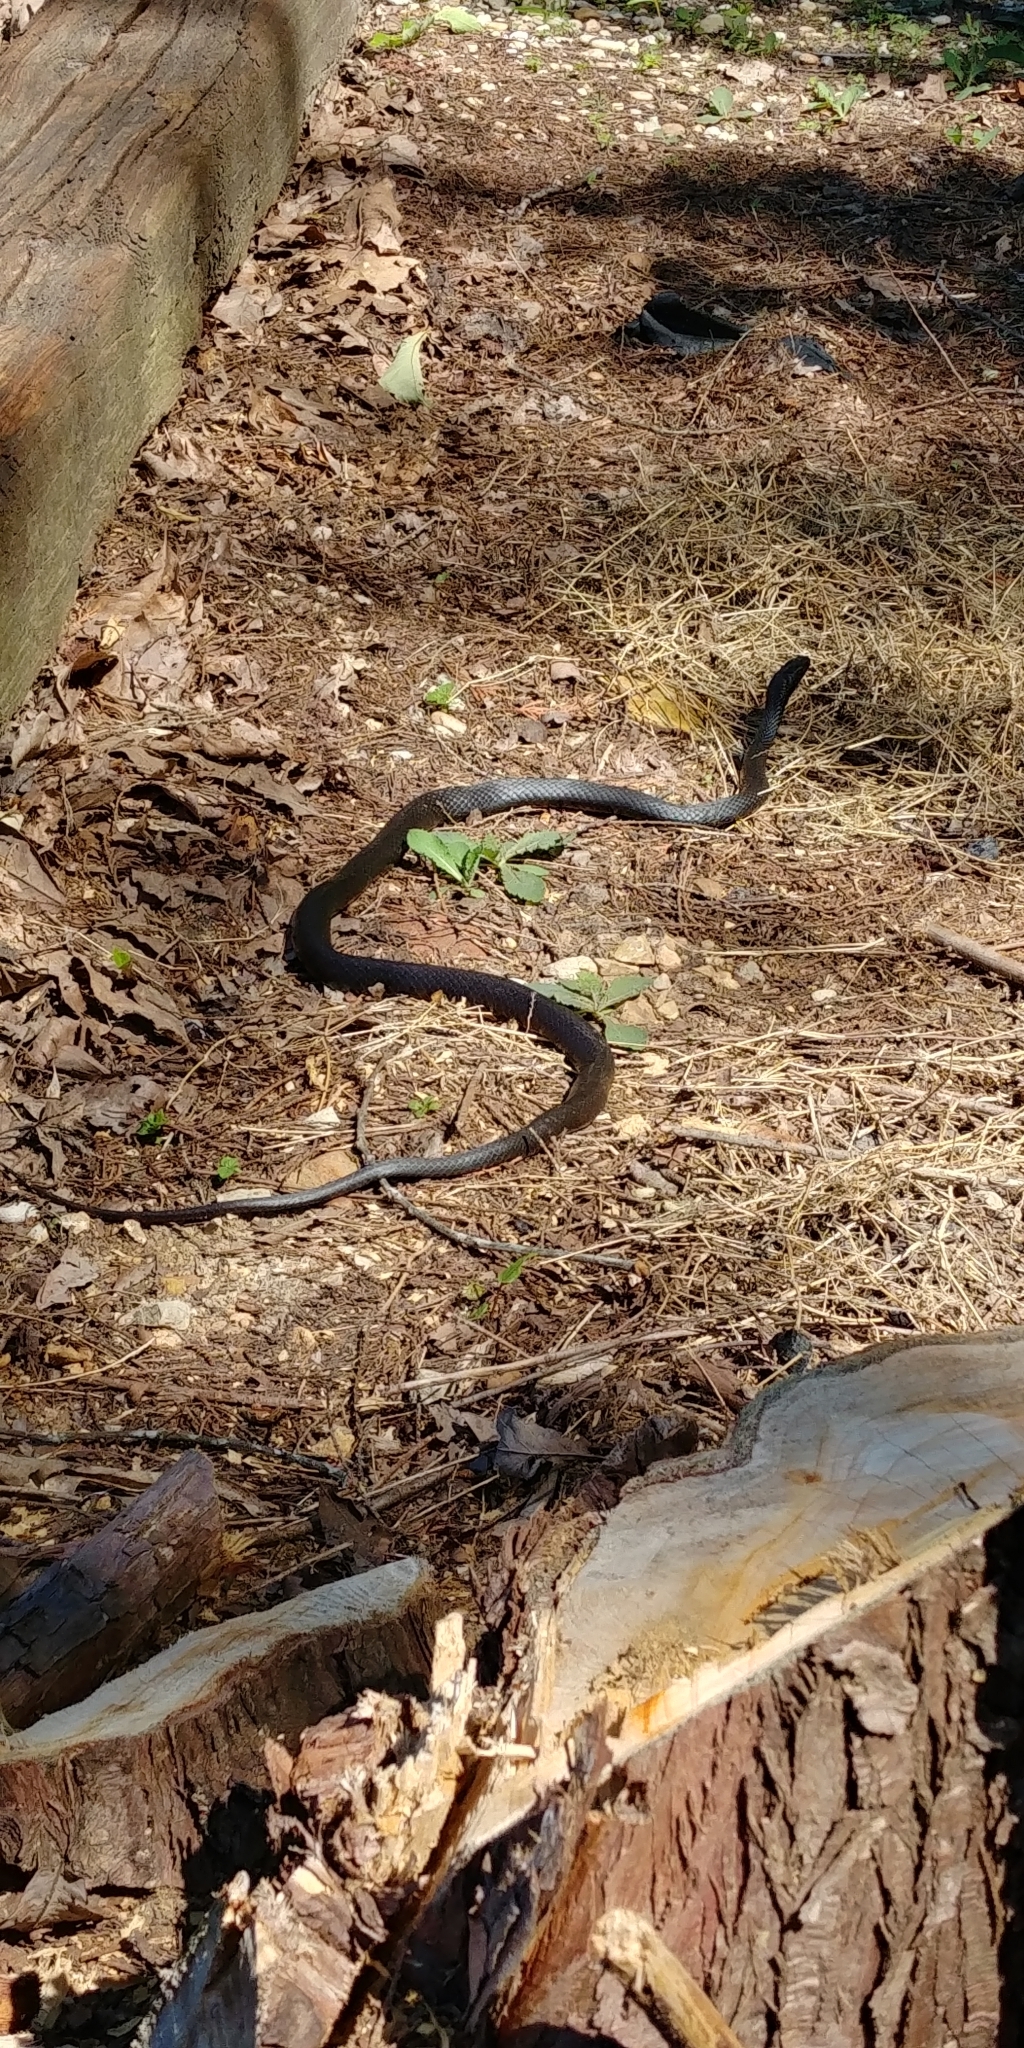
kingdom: Animalia
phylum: Chordata
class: Squamata
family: Colubridae
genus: Coluber
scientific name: Coluber constrictor
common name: Eastern racer
